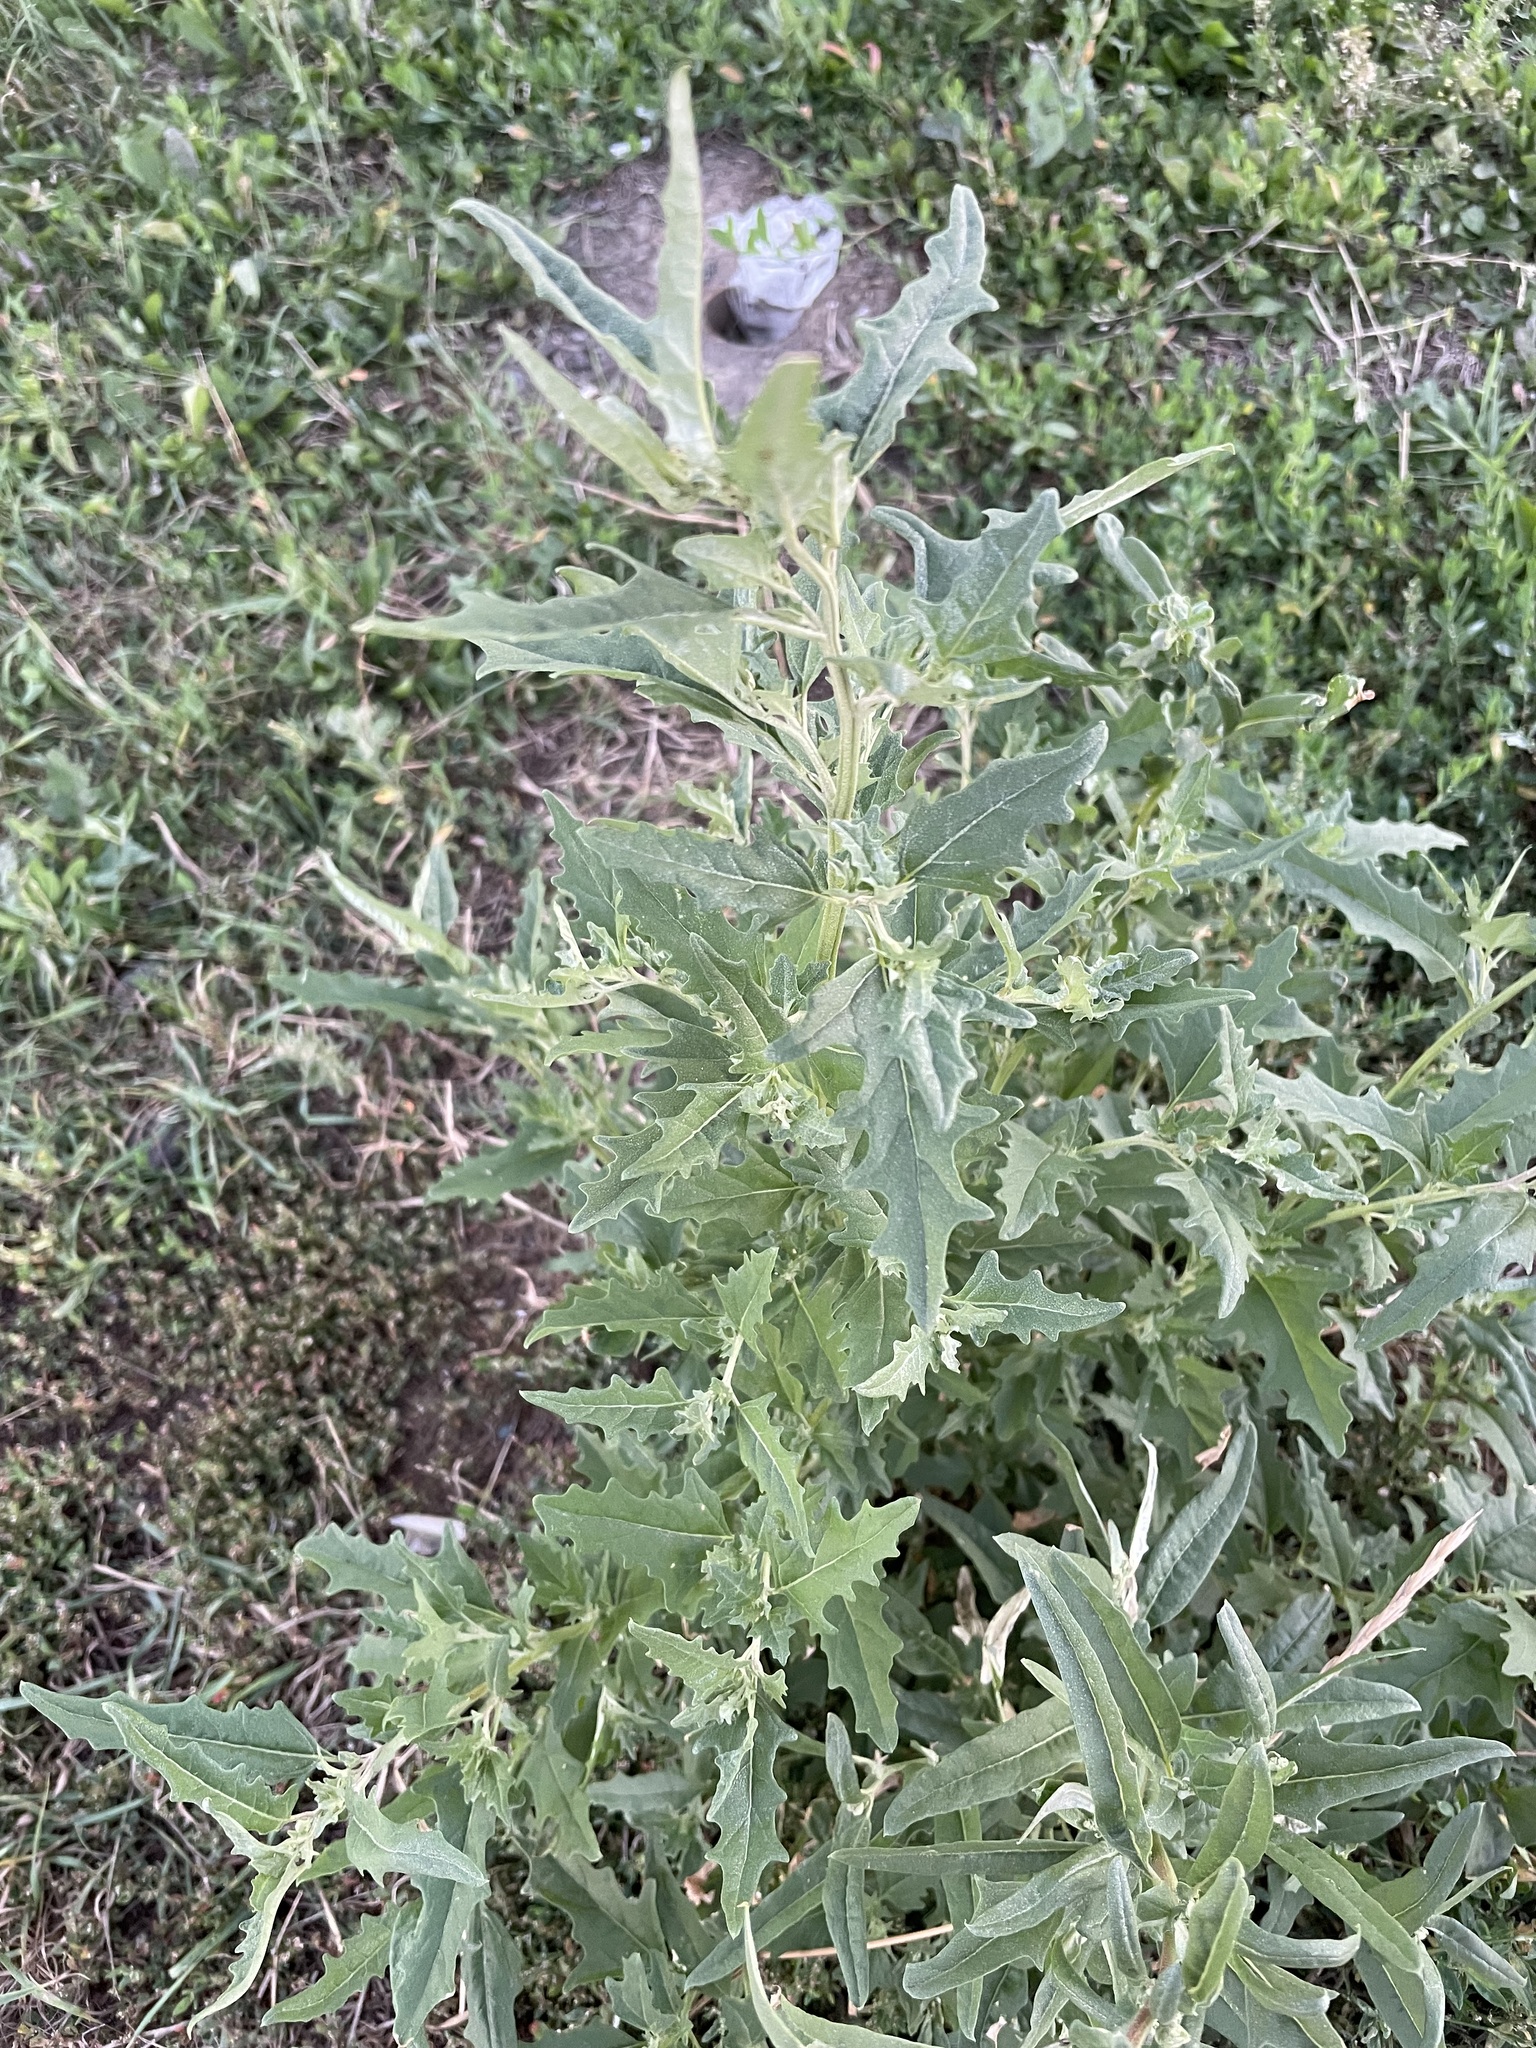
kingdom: Plantae
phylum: Tracheophyta
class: Magnoliopsida
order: Caryophyllales
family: Amaranthaceae
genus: Atriplex
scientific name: Atriplex tatarica
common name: Tatarian orache
